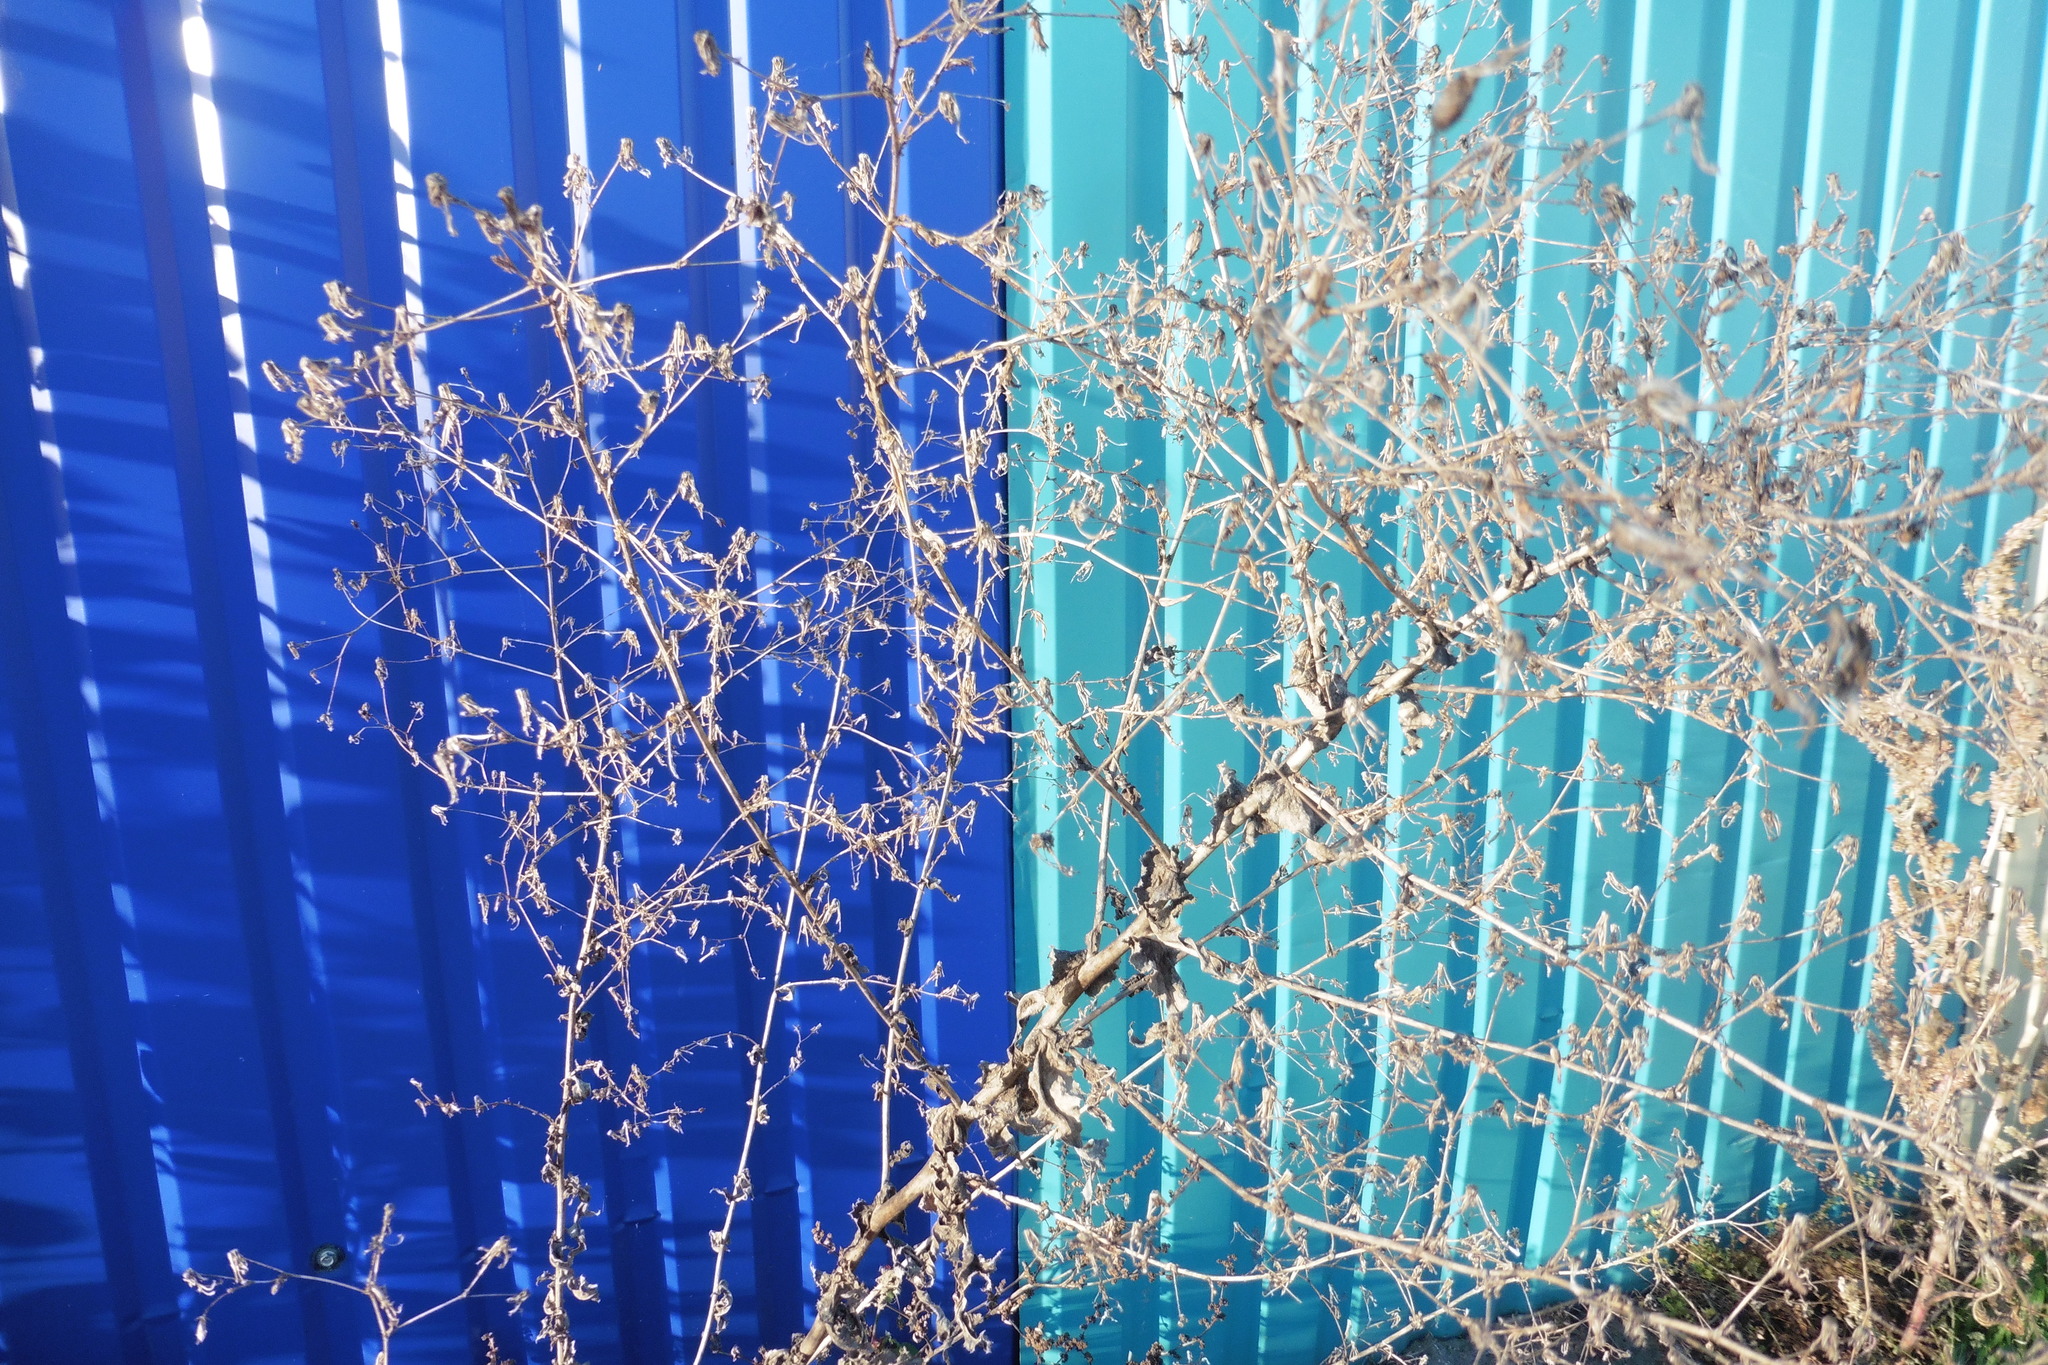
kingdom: Plantae
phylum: Tracheophyta
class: Magnoliopsida
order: Asterales
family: Asteraceae
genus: Lactuca
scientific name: Lactuca serriola
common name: Prickly lettuce
